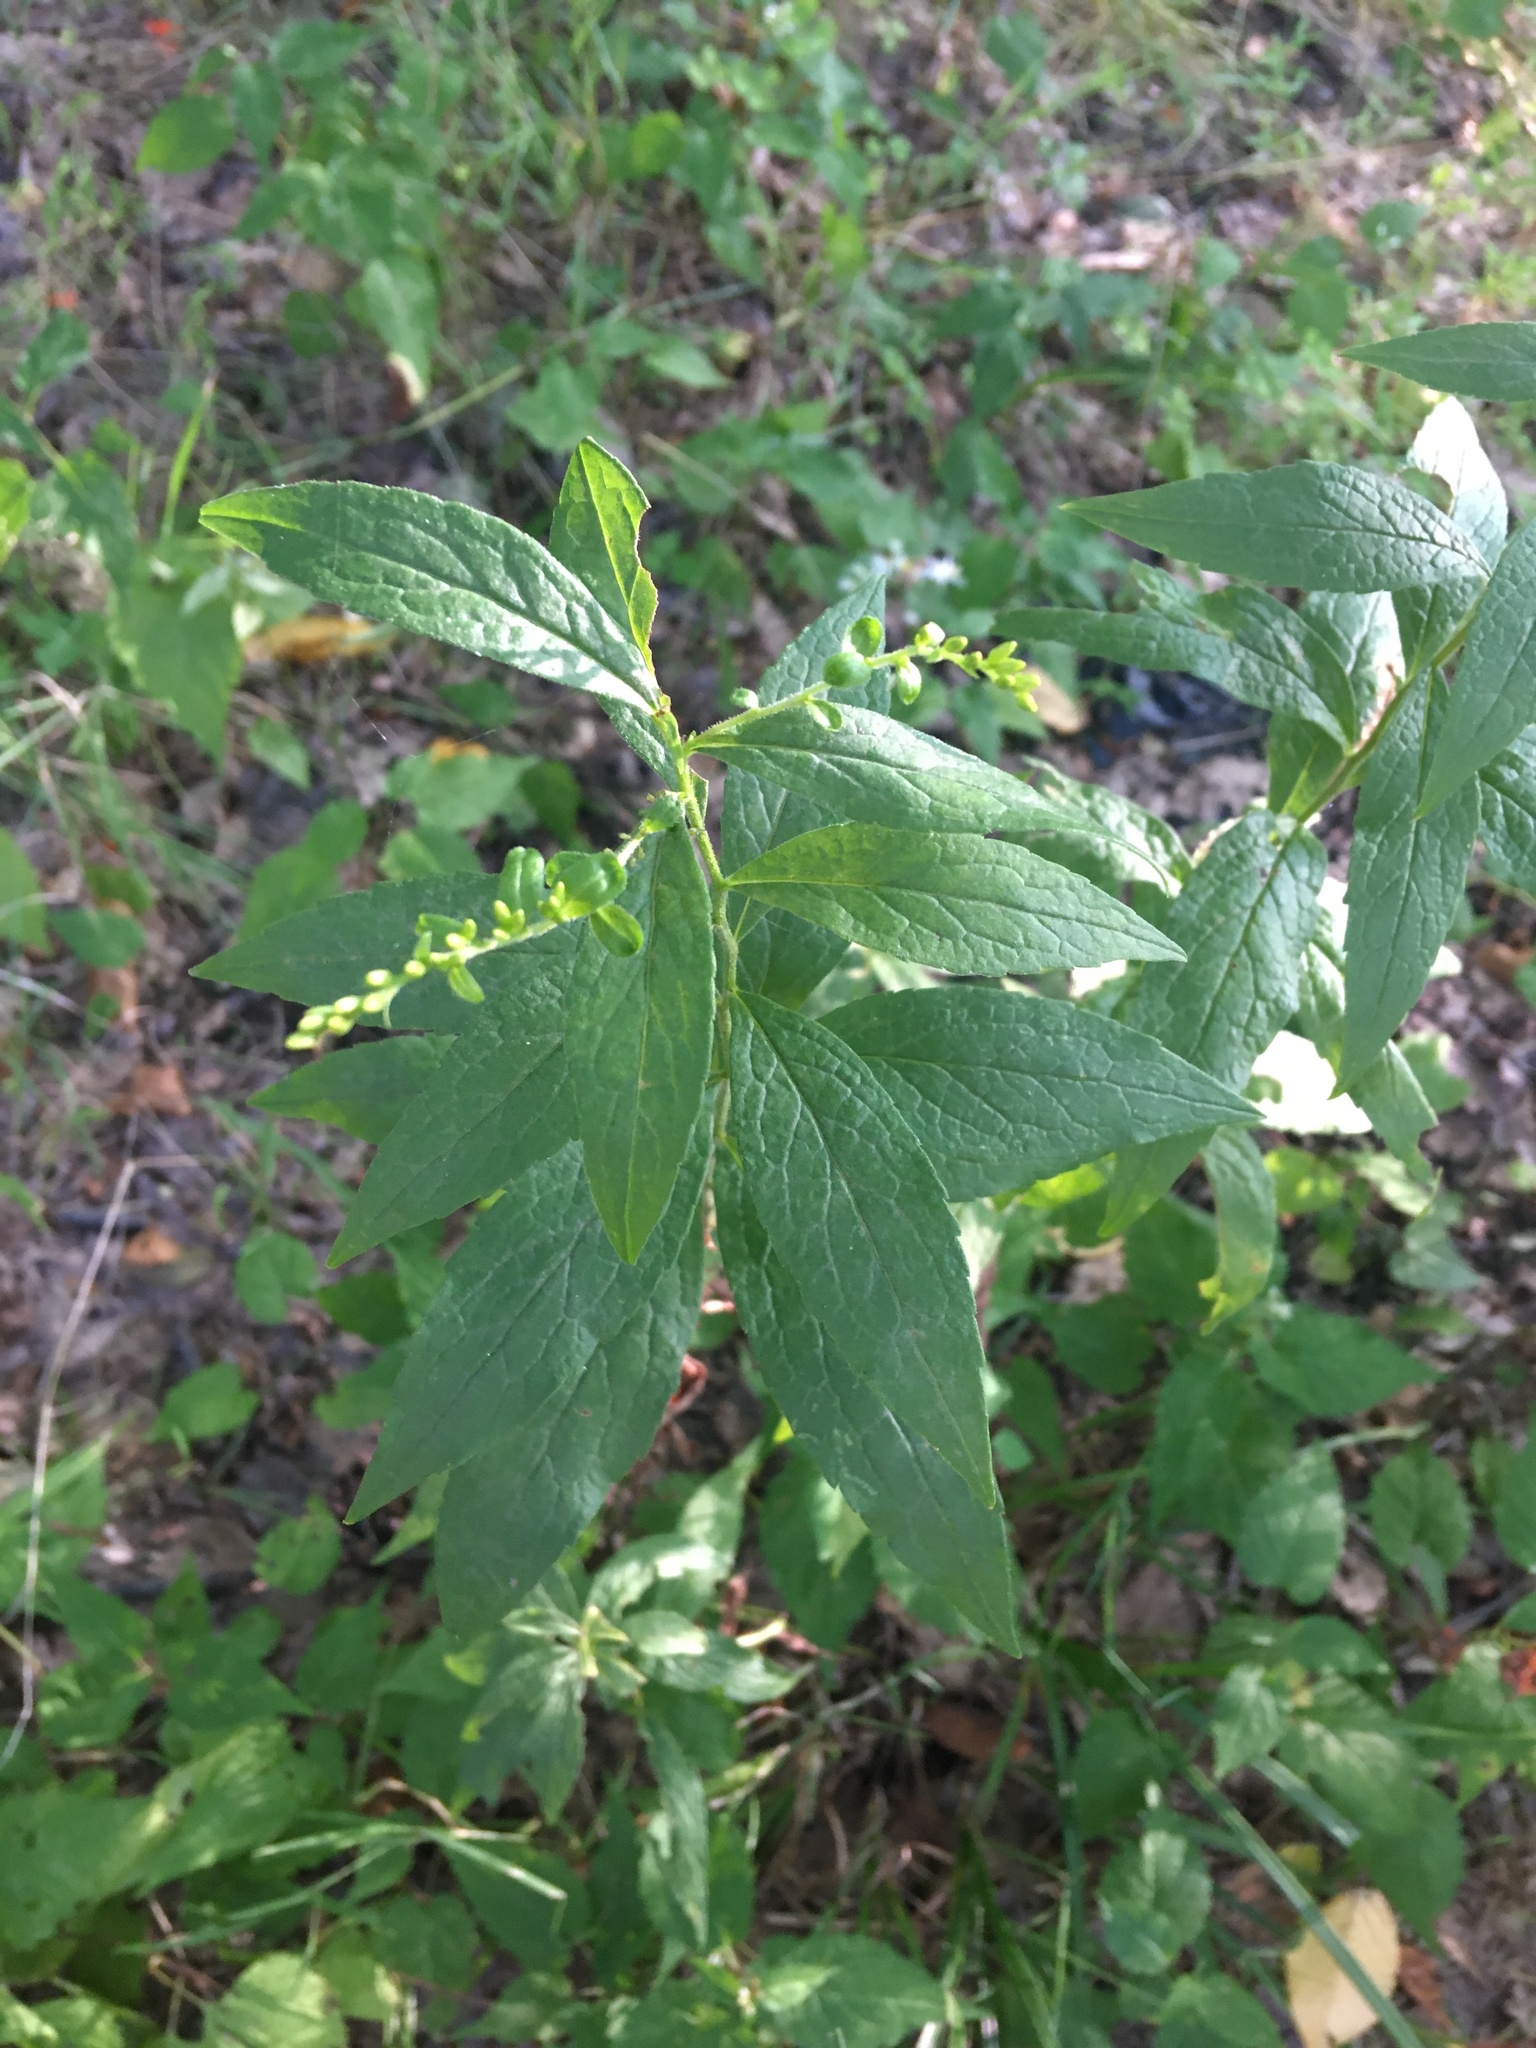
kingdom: Plantae
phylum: Tracheophyta
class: Magnoliopsida
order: Asterales
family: Asteraceae
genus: Solidago
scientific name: Solidago rugosa
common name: Rough-stemmed goldenrod
